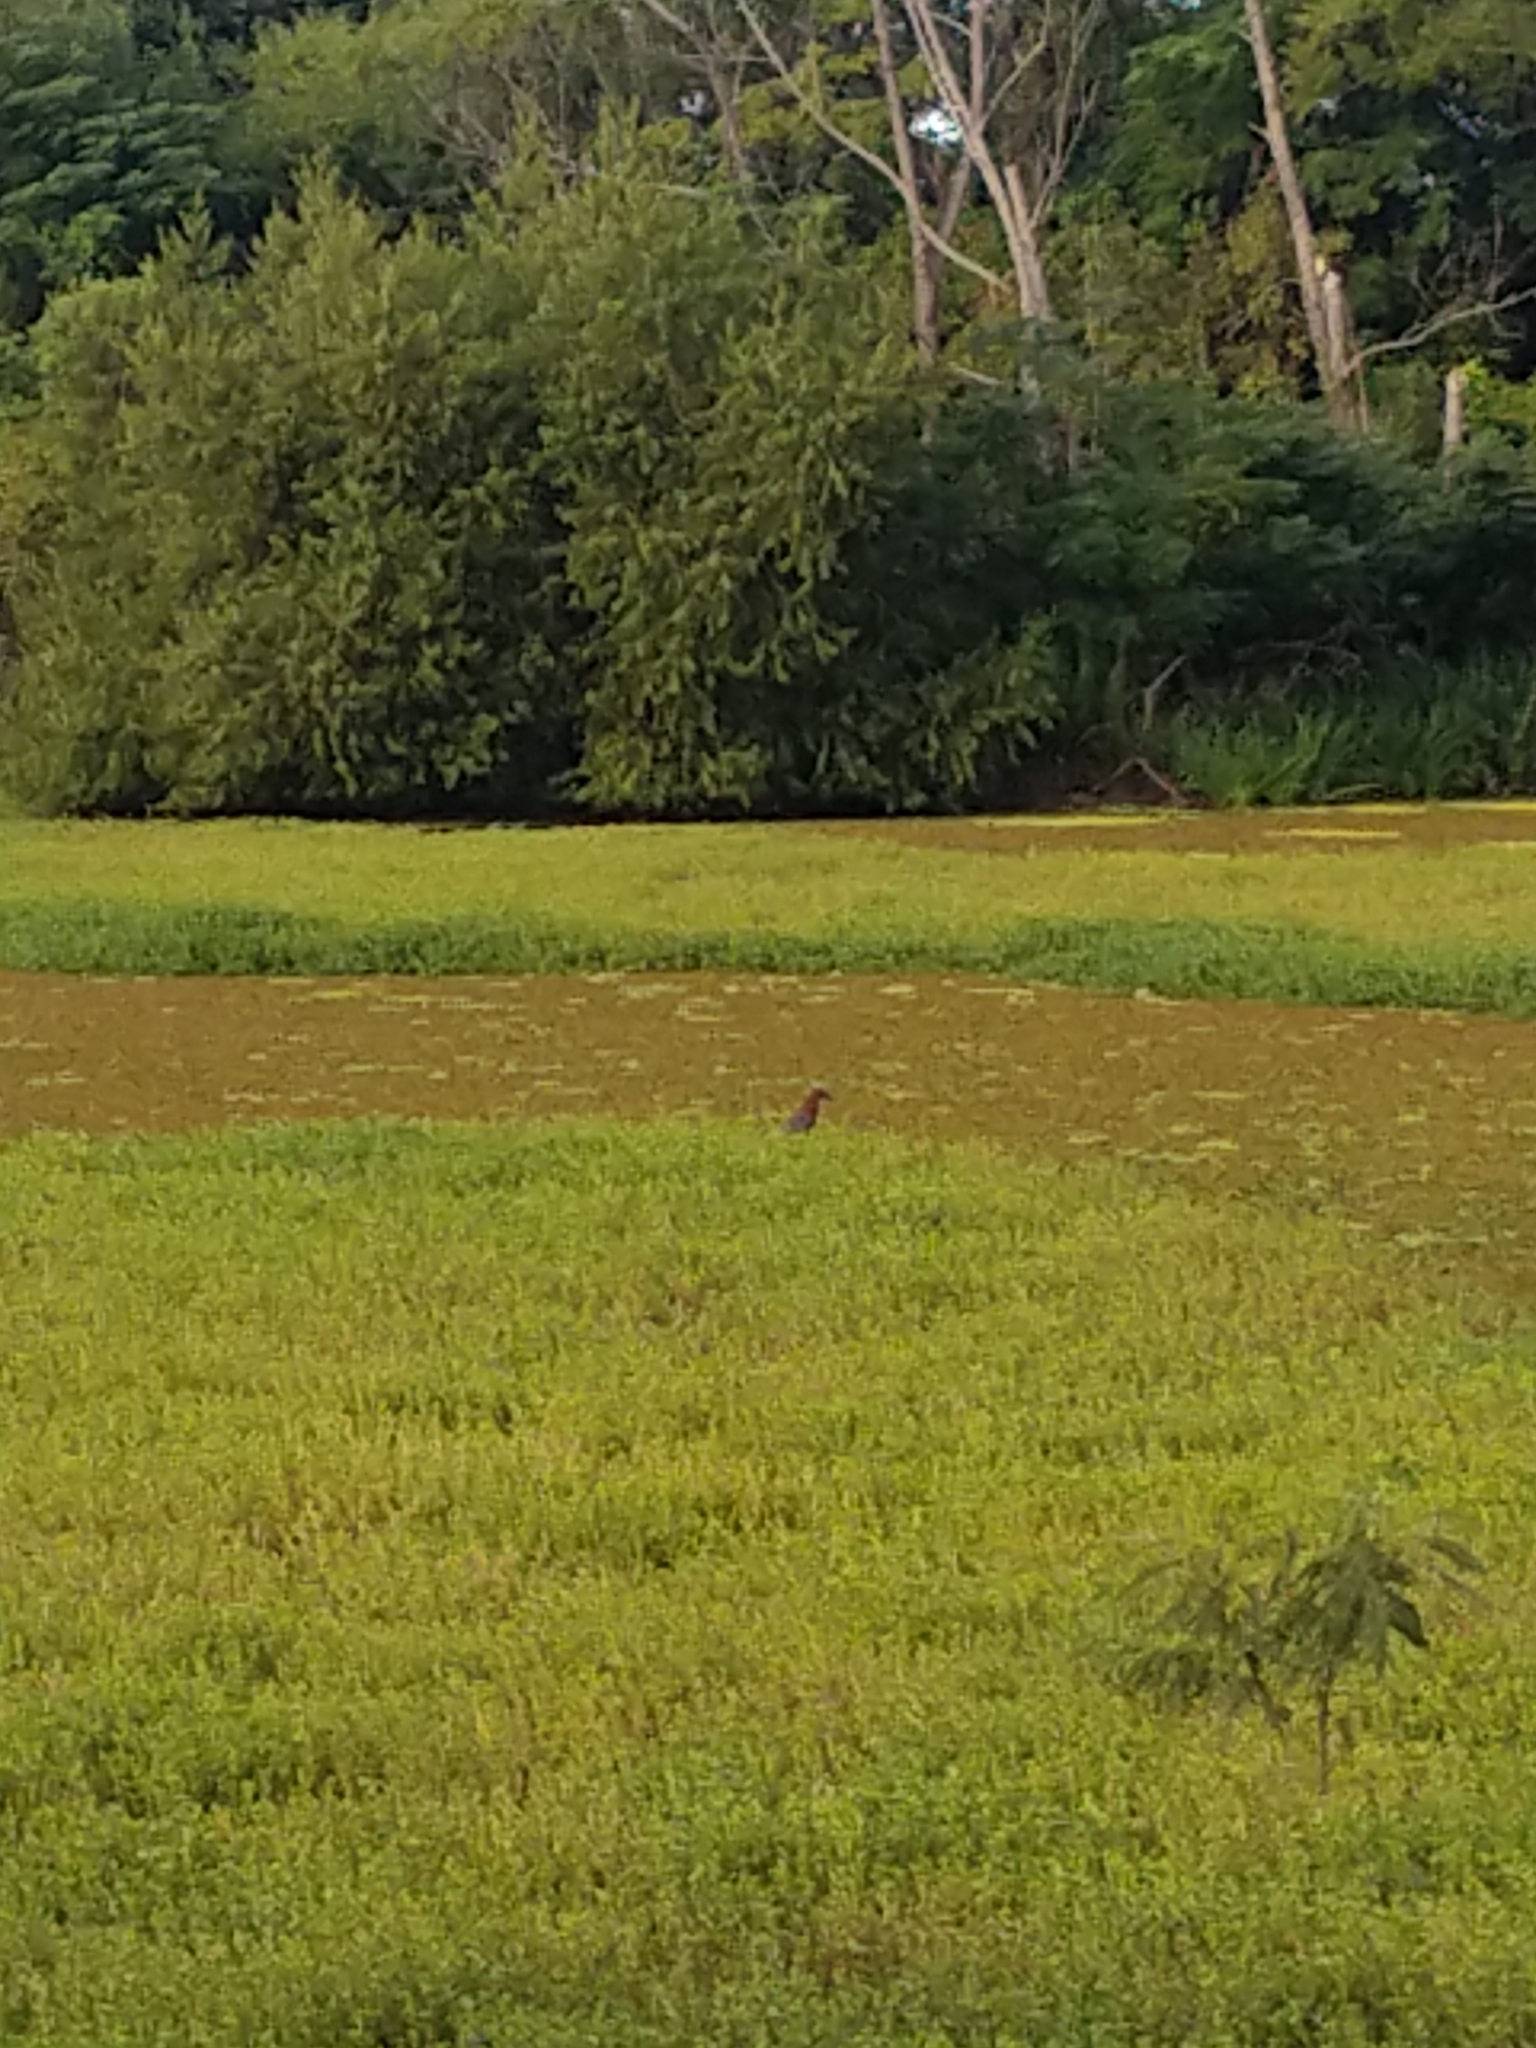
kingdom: Animalia
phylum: Chordata
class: Aves
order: Pelecaniformes
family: Ardeidae
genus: Tigrisoma
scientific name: Tigrisoma lineatum
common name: Rufescent tiger-heron
